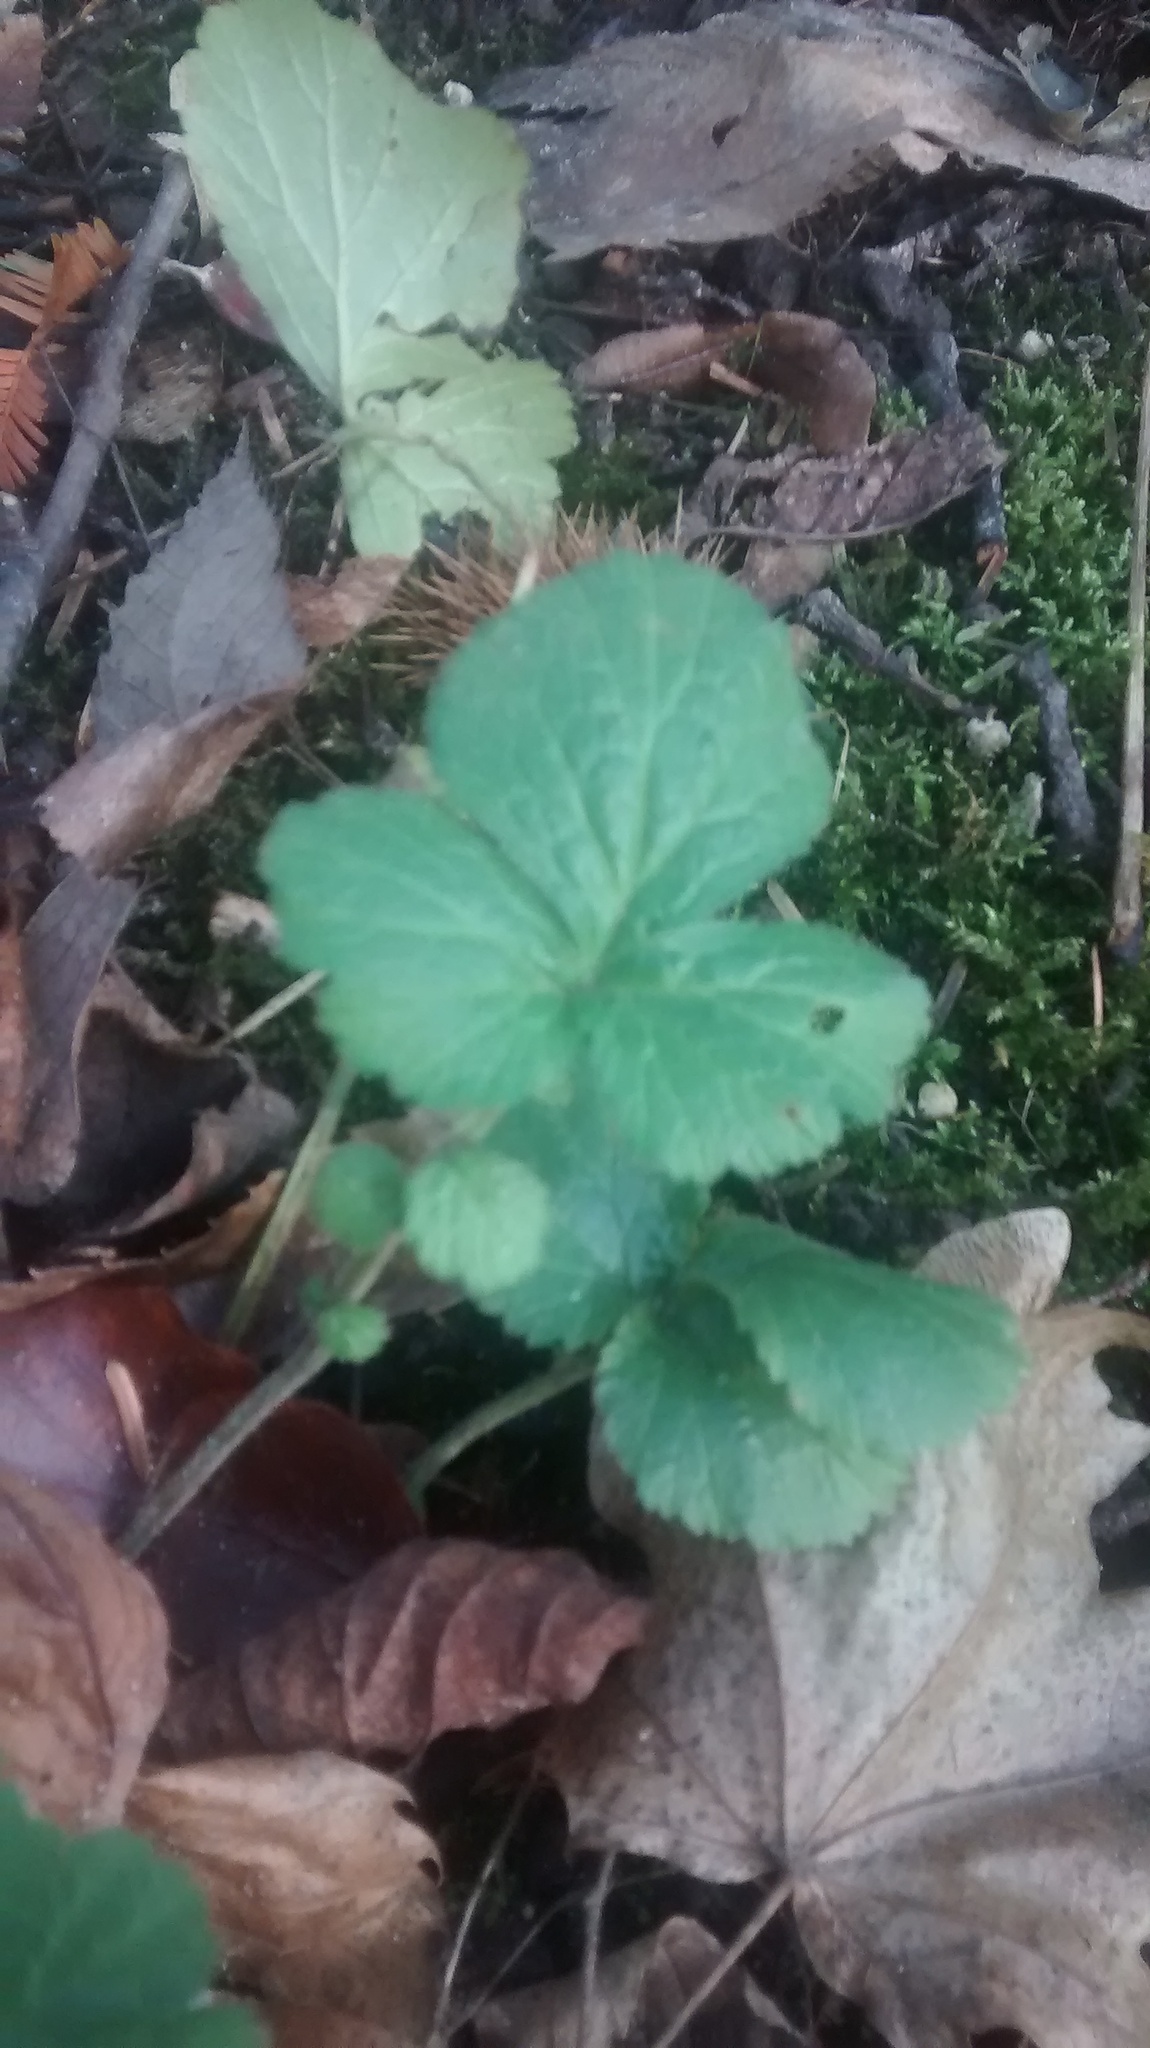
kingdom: Plantae
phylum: Tracheophyta
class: Magnoliopsida
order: Rosales
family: Rosaceae
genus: Geum
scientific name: Geum urbanum
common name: Wood avens
